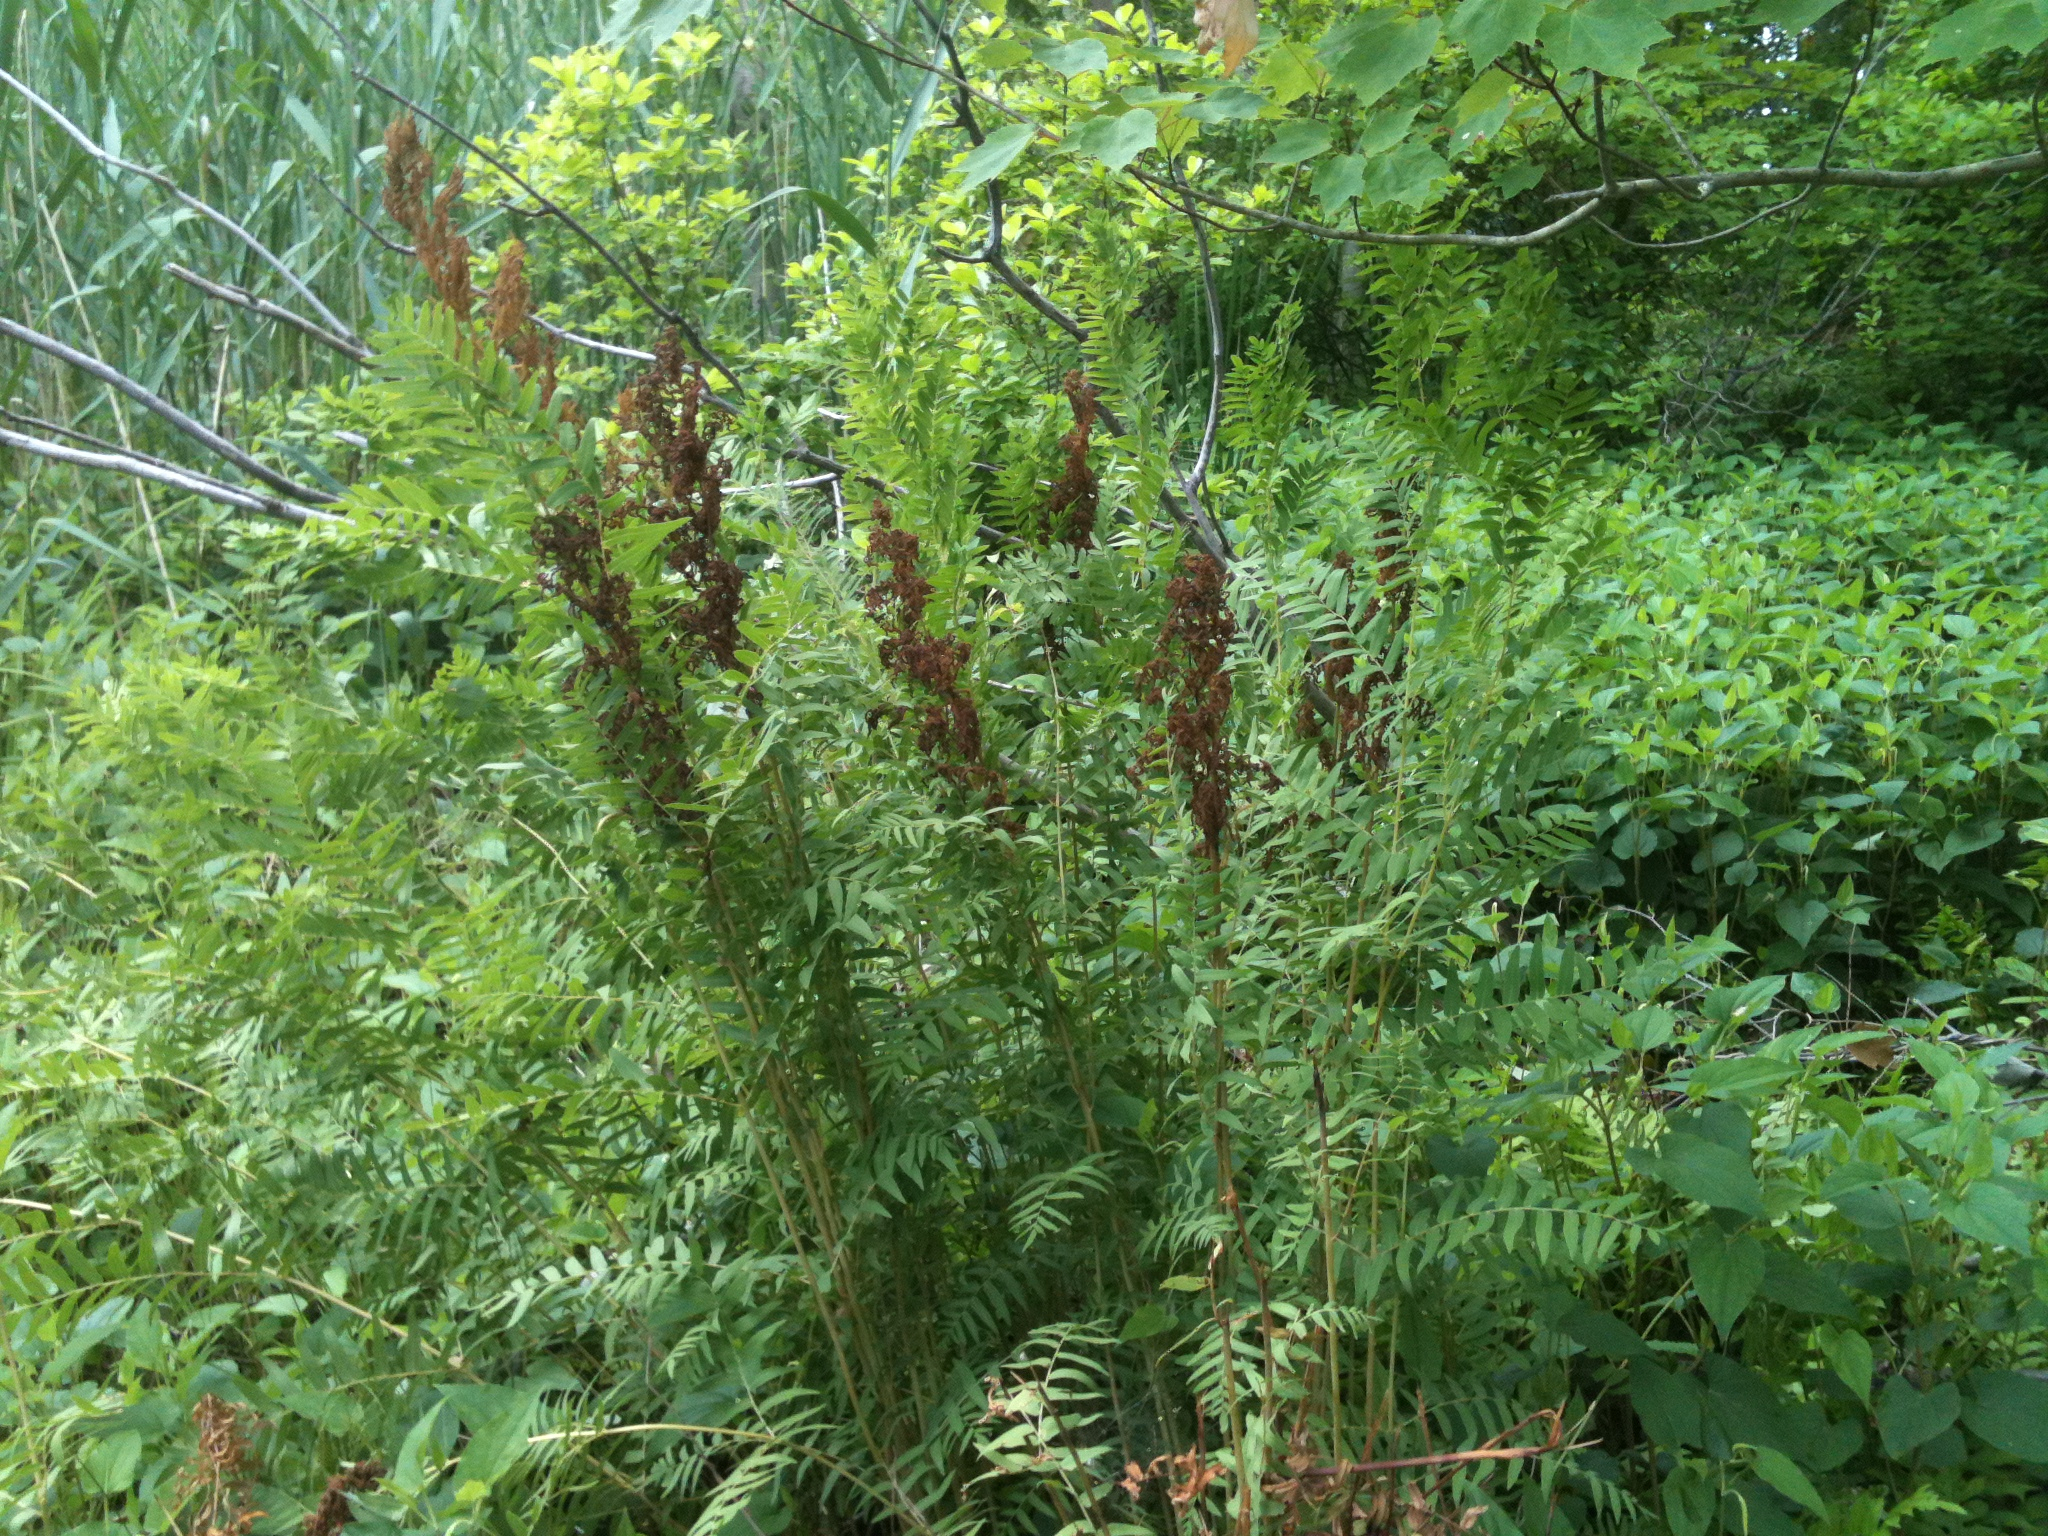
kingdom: Plantae
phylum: Tracheophyta
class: Polypodiopsida
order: Osmundales
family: Osmundaceae
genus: Osmunda
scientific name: Osmunda spectabilis
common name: American royal fern
